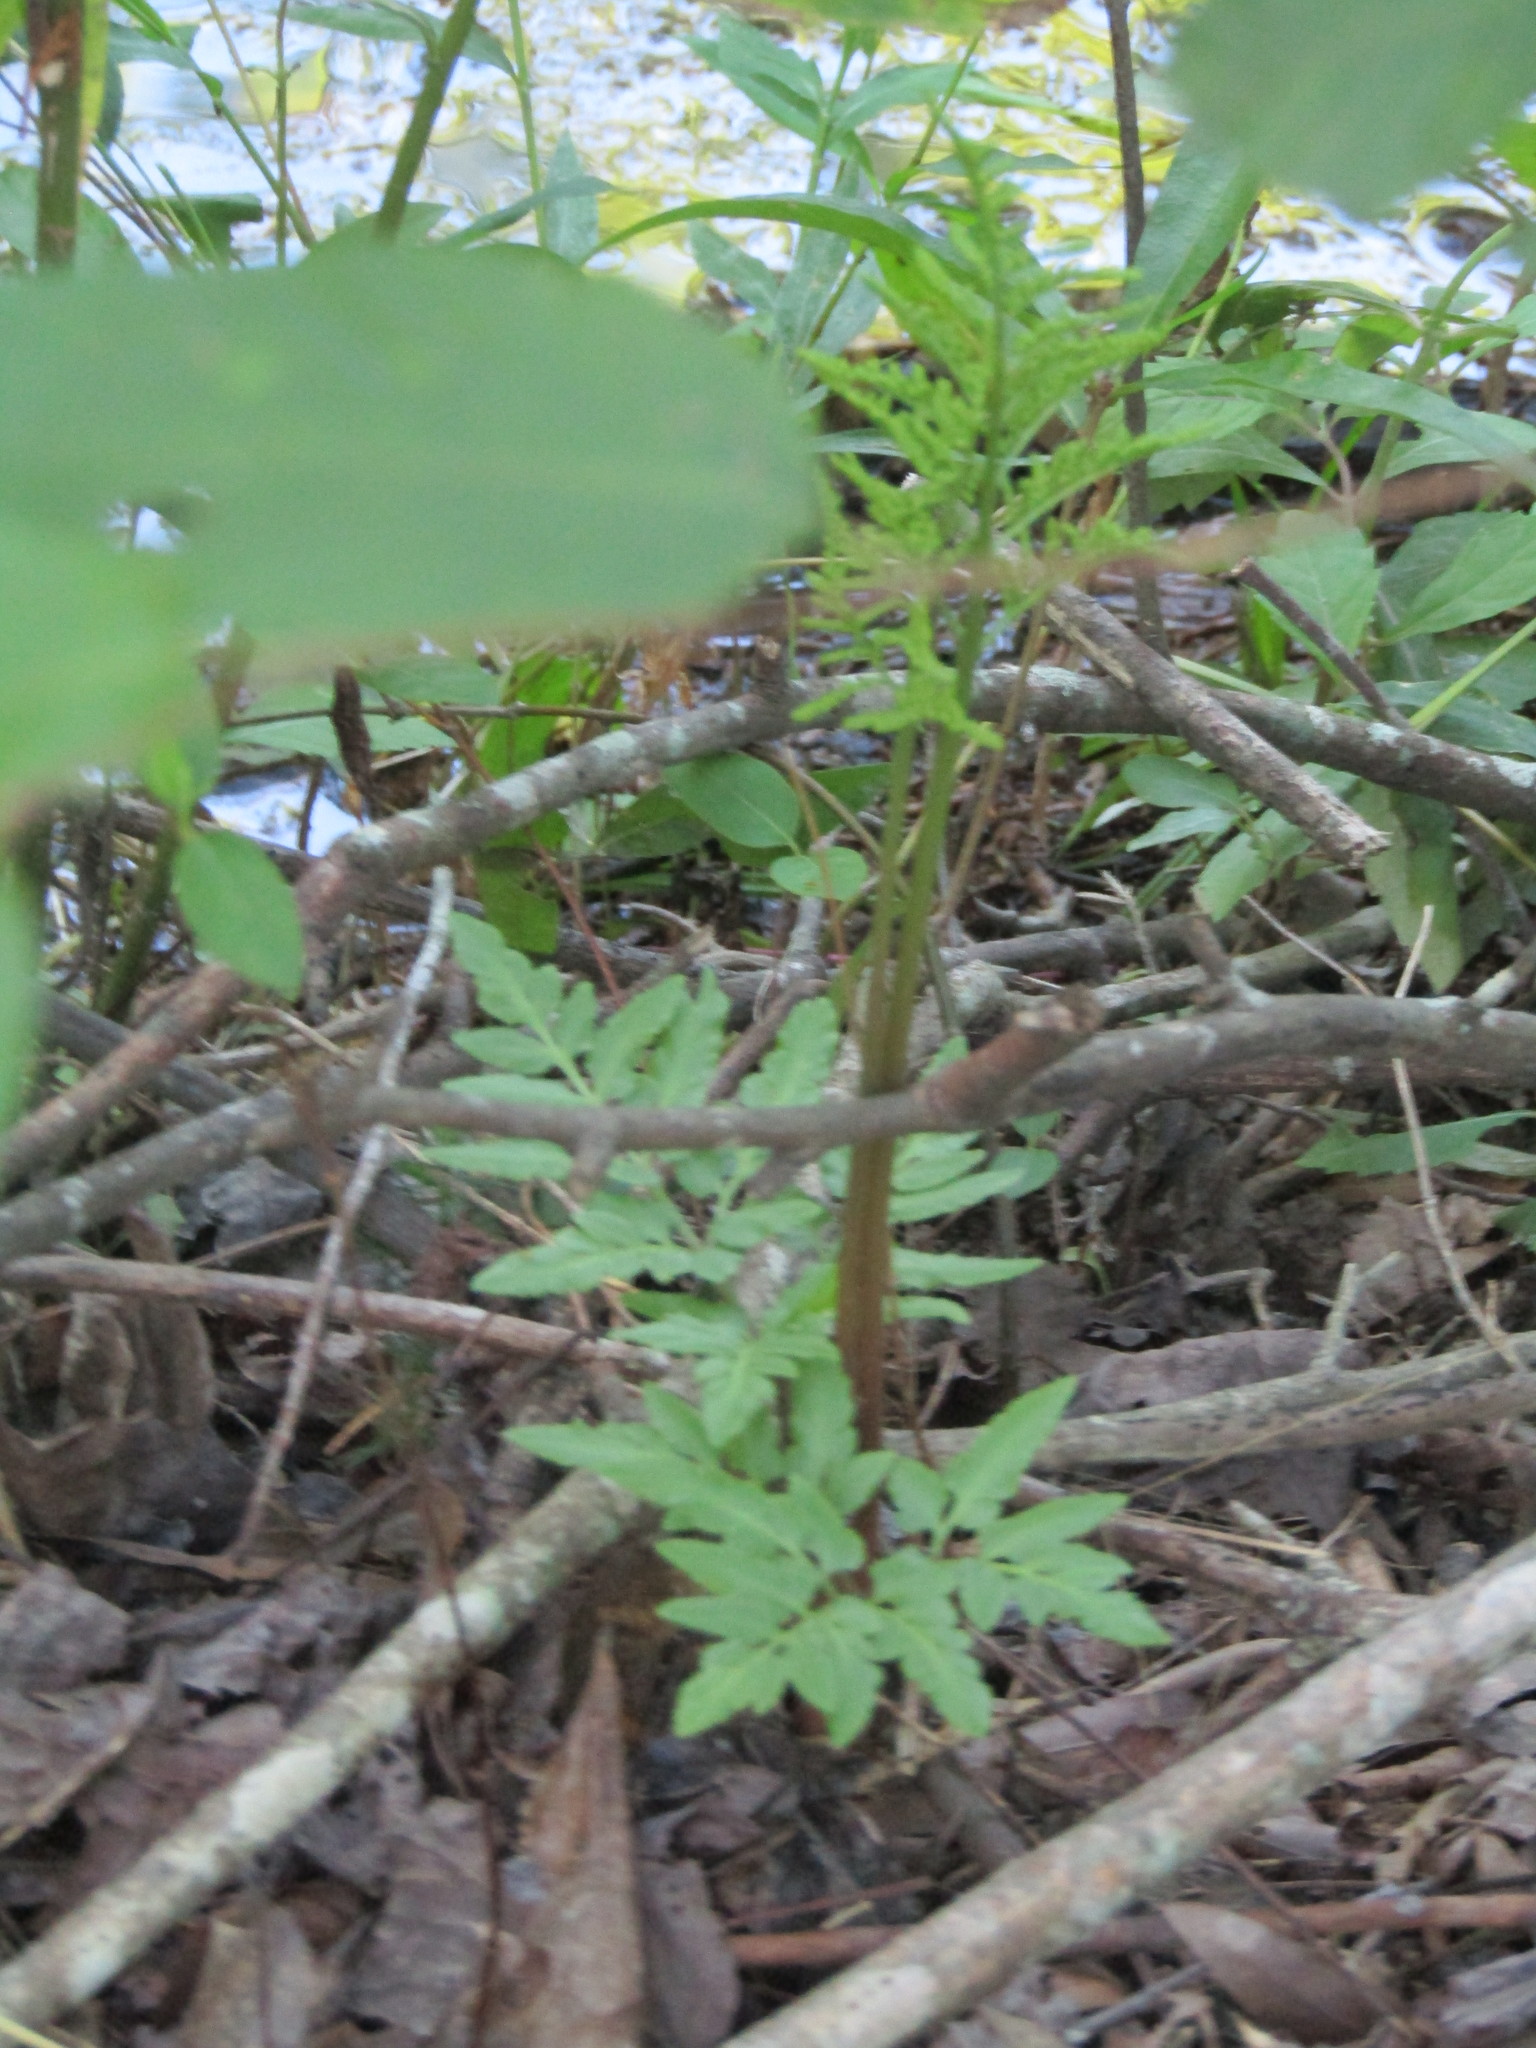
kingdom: Plantae
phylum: Tracheophyta
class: Polypodiopsida
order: Ophioglossales
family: Ophioglossaceae
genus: Sceptridium
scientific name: Sceptridium dissectum
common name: Cut-leaved grapefern
